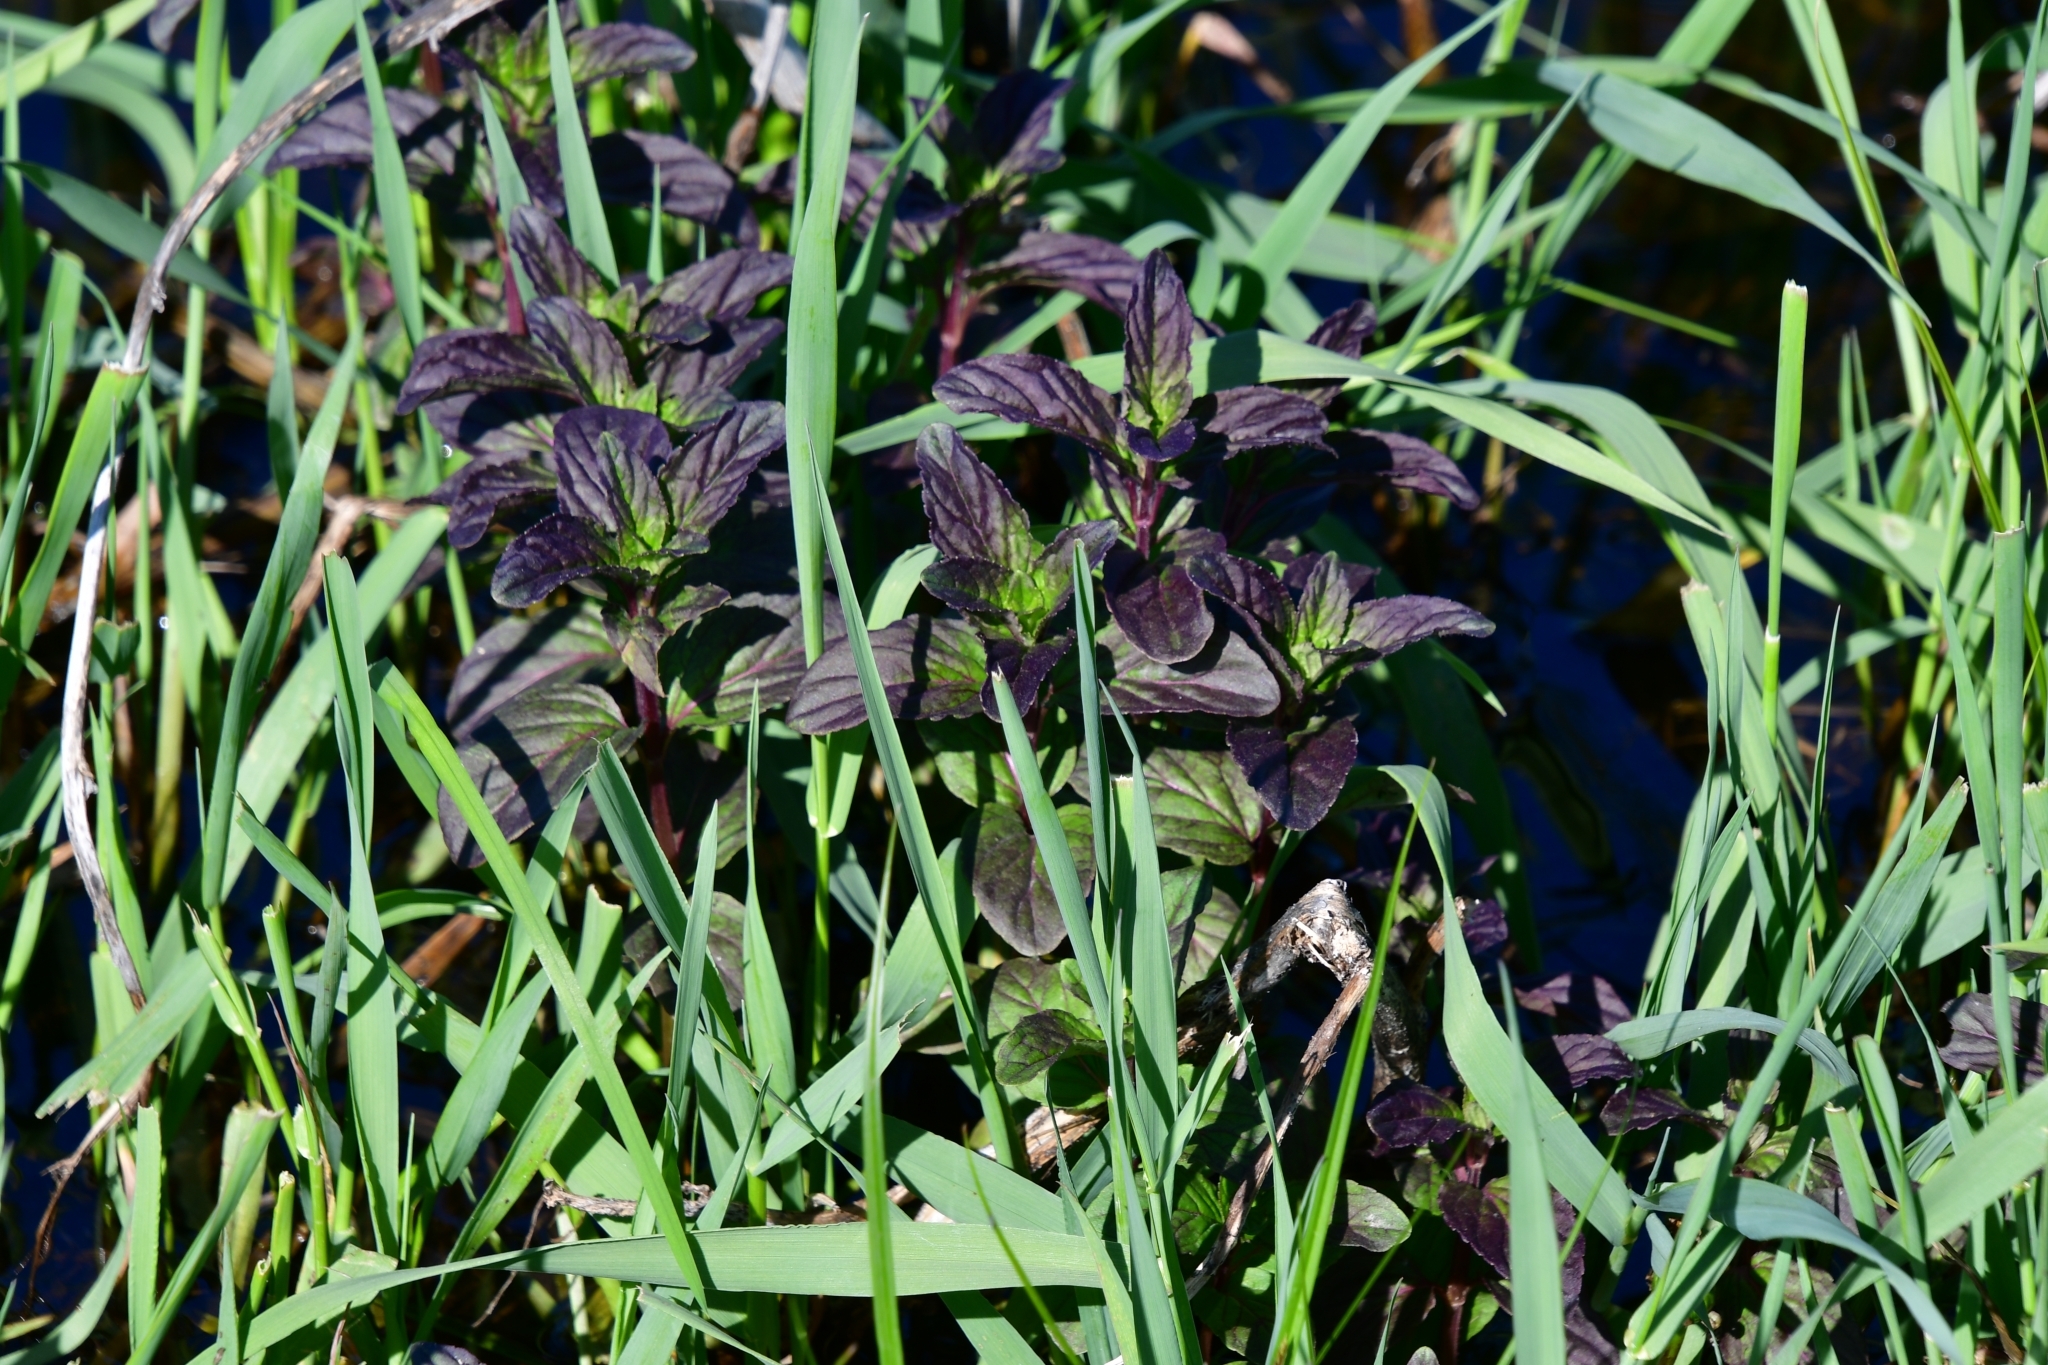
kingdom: Plantae
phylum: Tracheophyta
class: Magnoliopsida
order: Lamiales
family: Lamiaceae
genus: Mentha
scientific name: Mentha aquatica
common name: Water mint
